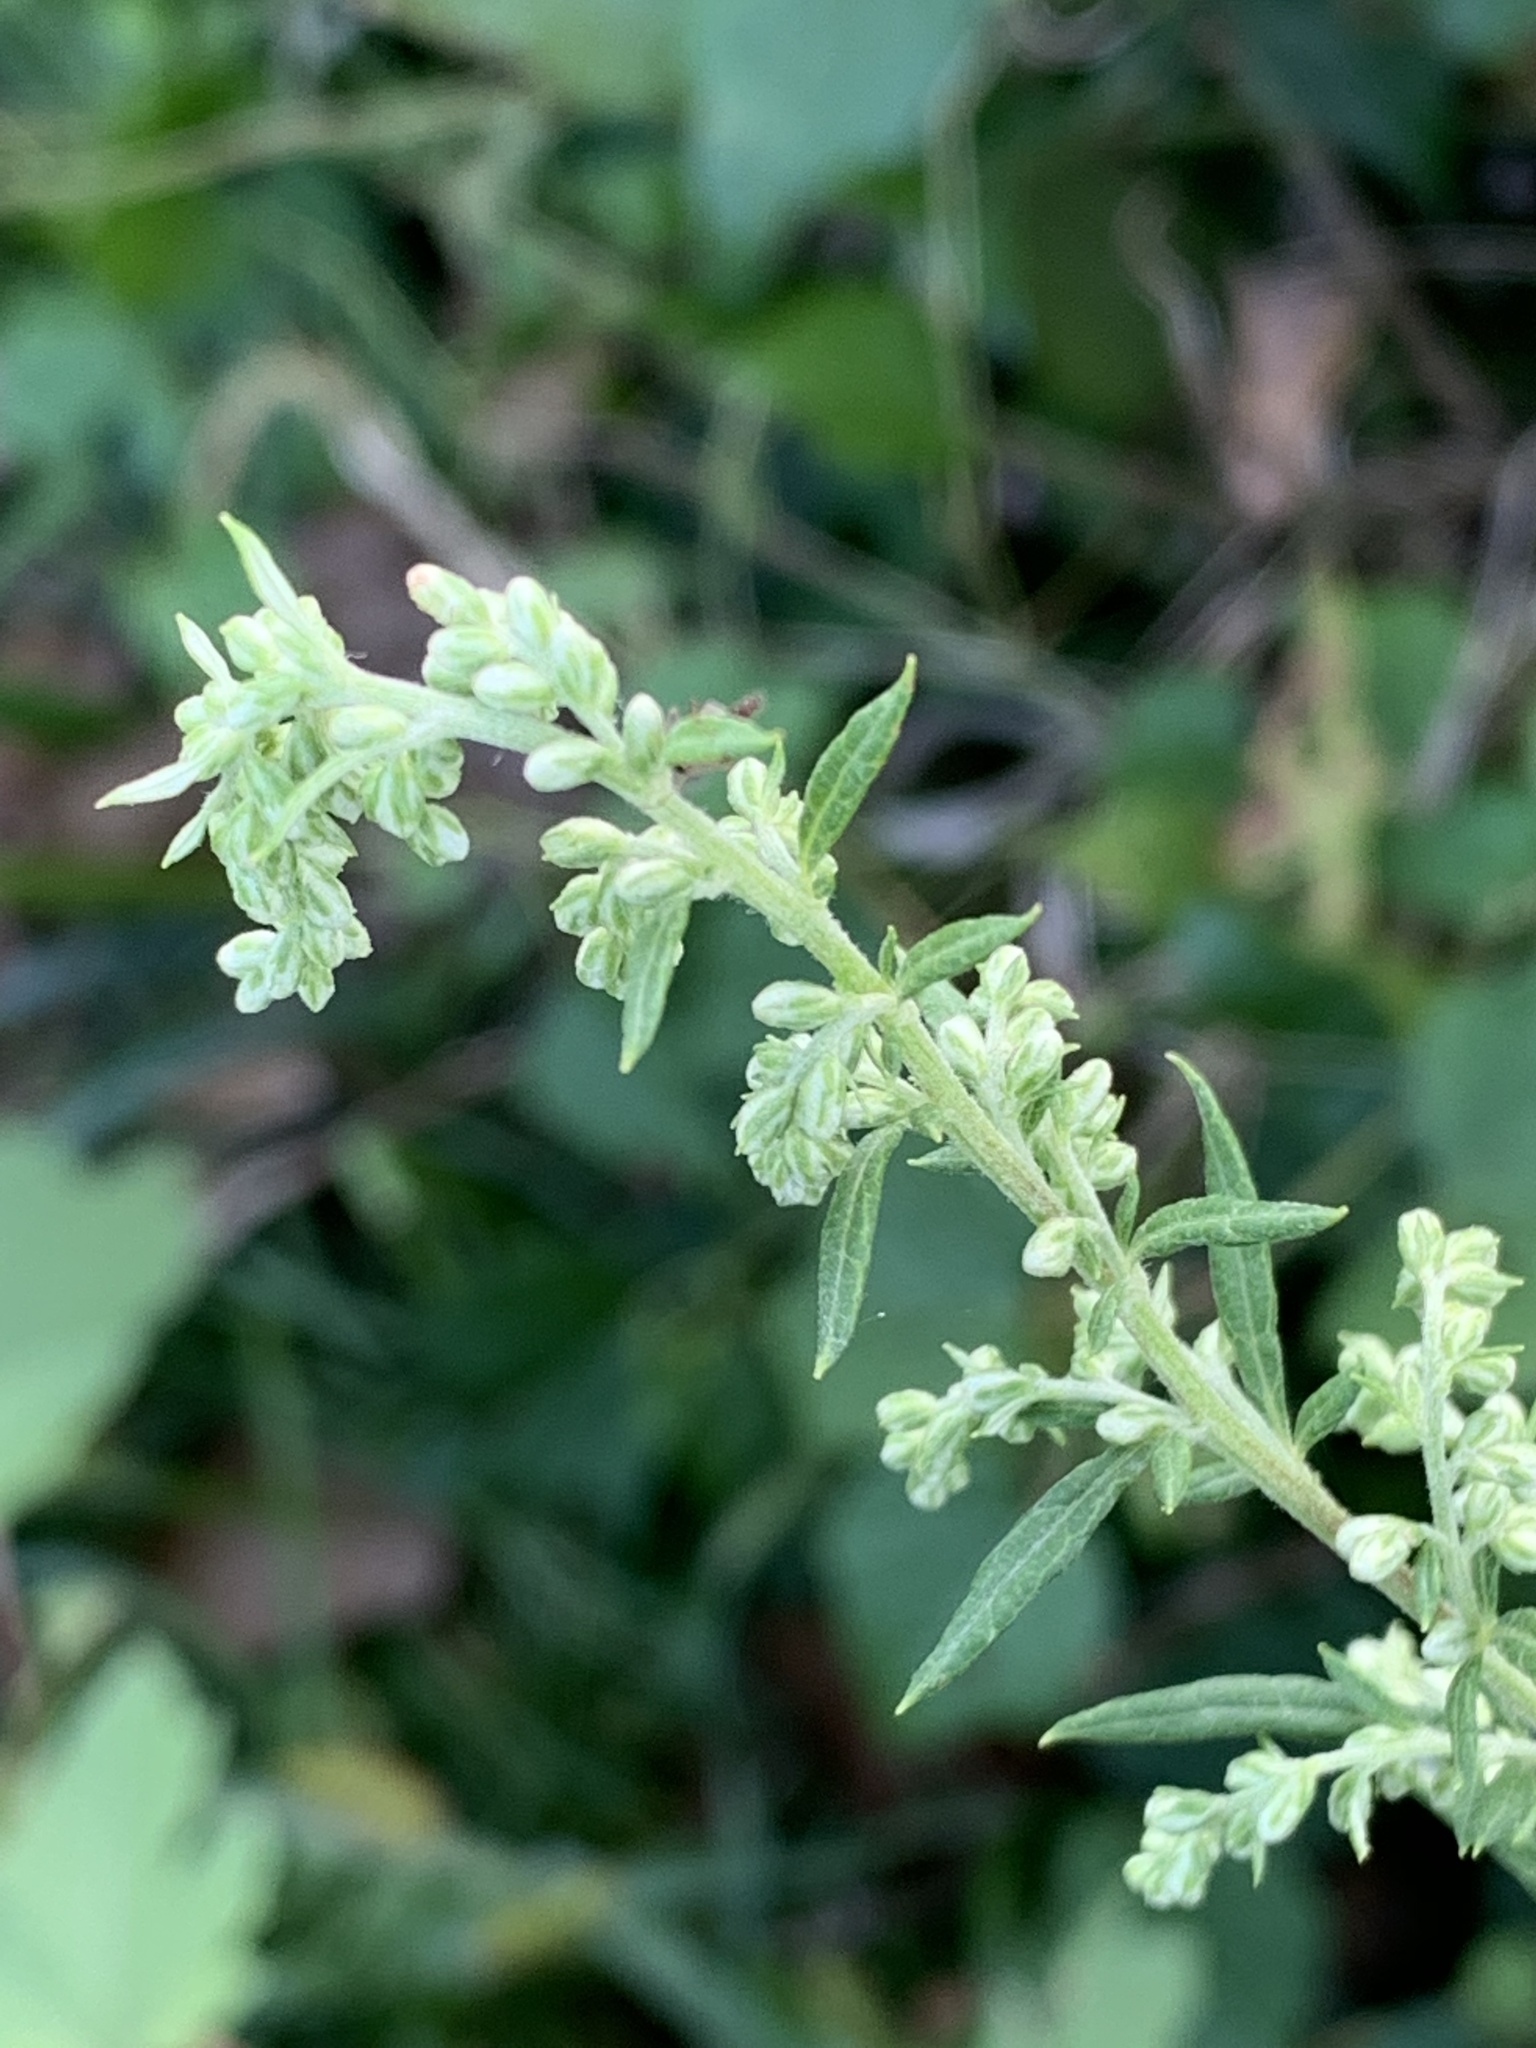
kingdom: Plantae
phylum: Tracheophyta
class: Magnoliopsida
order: Asterales
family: Asteraceae
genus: Artemisia
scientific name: Artemisia vulgaris
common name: Mugwort
